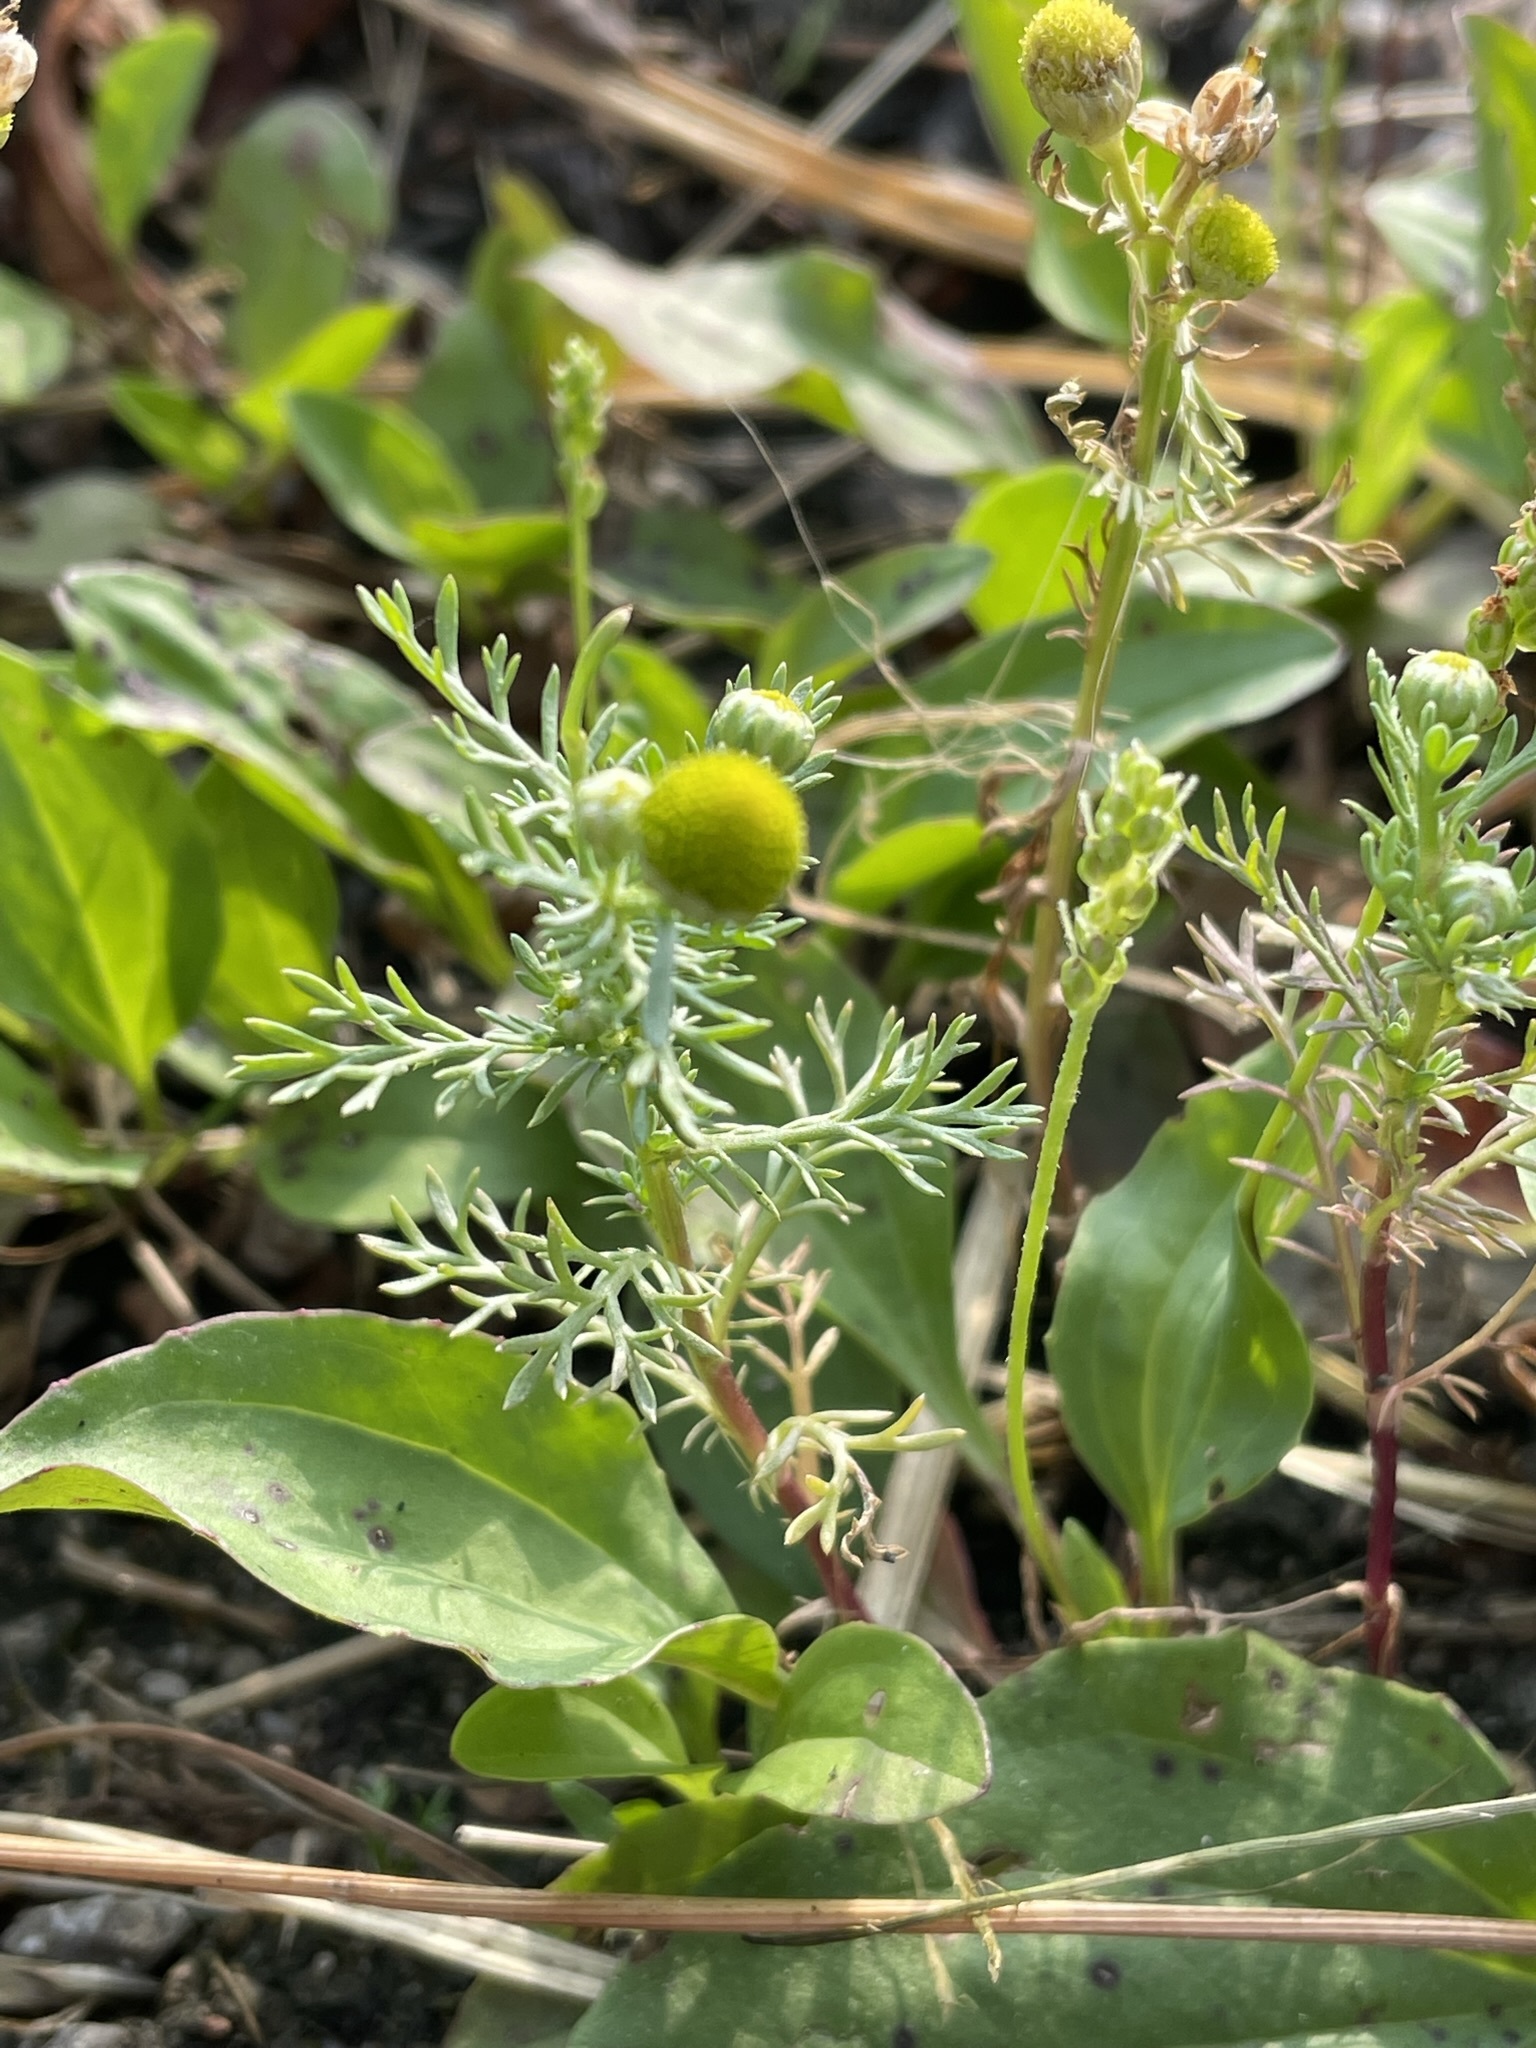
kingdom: Plantae
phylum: Tracheophyta
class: Magnoliopsida
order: Asterales
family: Asteraceae
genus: Matricaria
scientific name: Matricaria discoidea
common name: Disc mayweed
